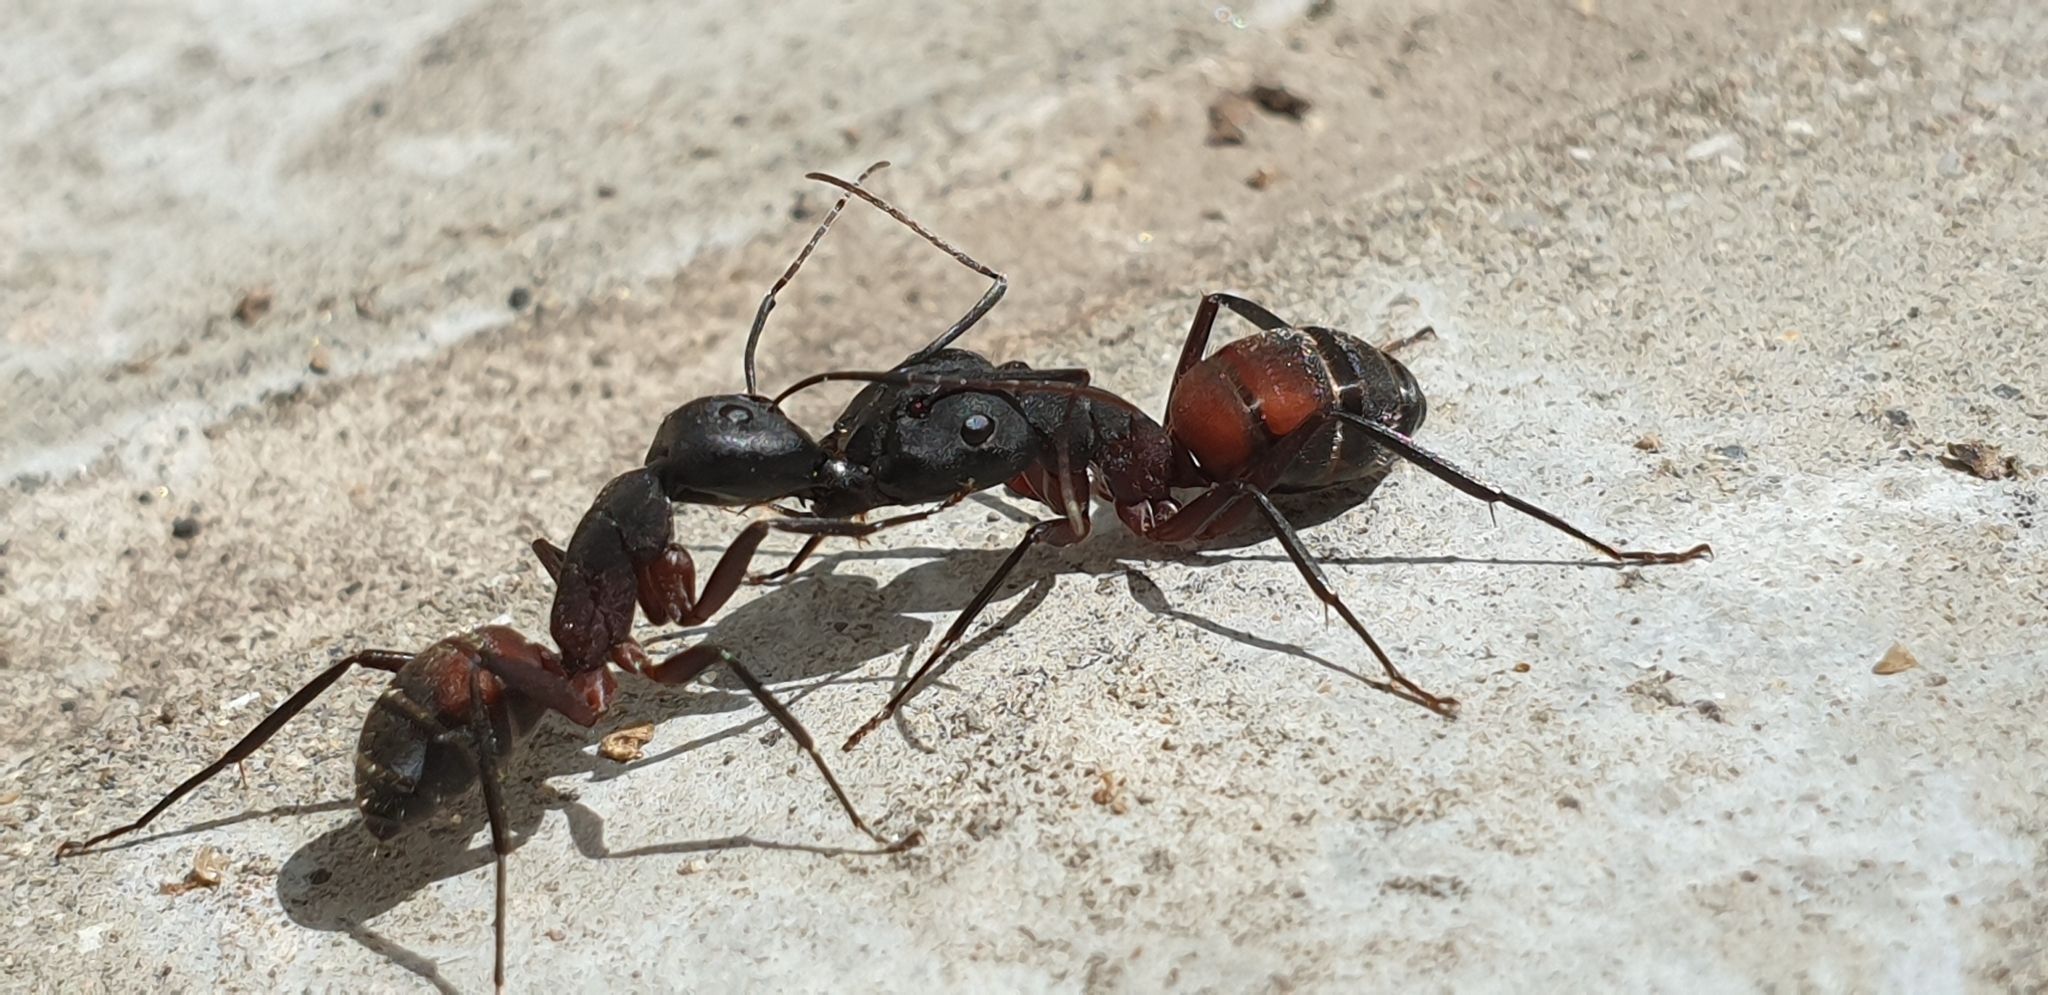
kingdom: Animalia
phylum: Arthropoda
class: Insecta
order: Hymenoptera
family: Formicidae
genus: Camponotus
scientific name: Camponotus cruentatus
